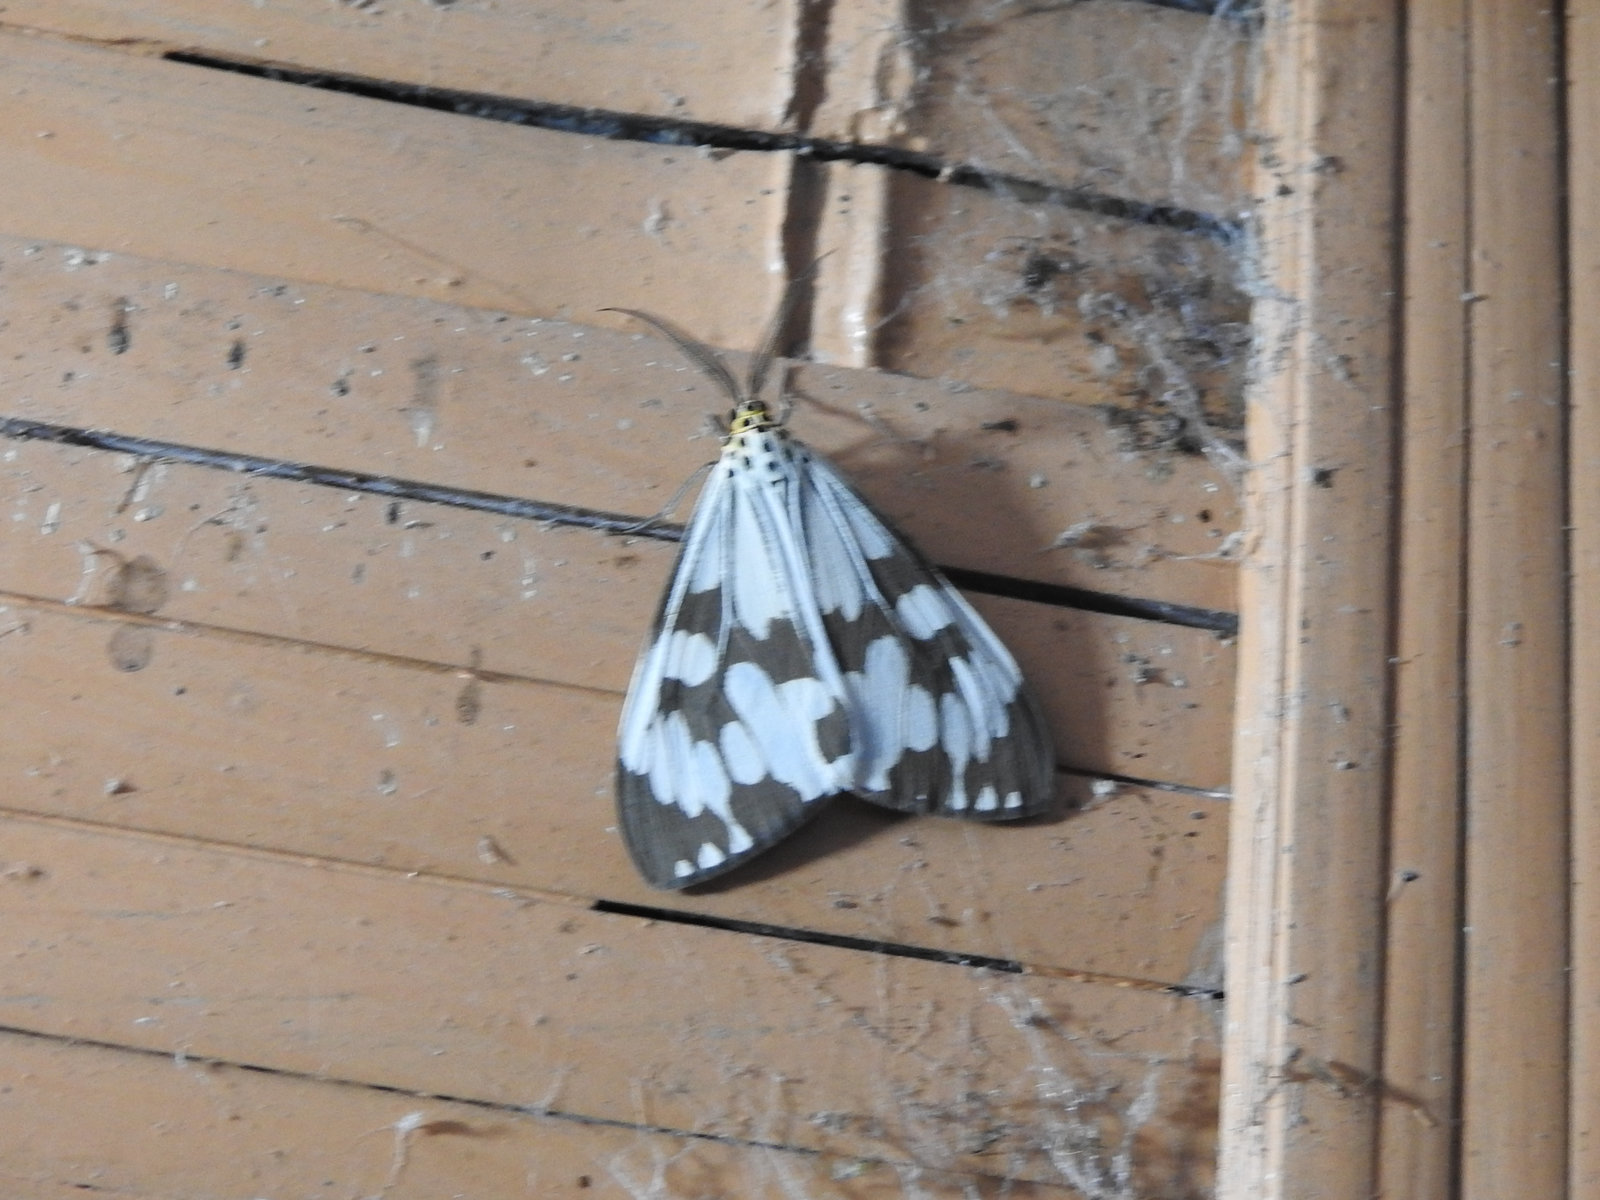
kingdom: Animalia
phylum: Arthropoda
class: Insecta
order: Lepidoptera
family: Erebidae
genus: Nyctemera
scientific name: Nyctemera adversata
